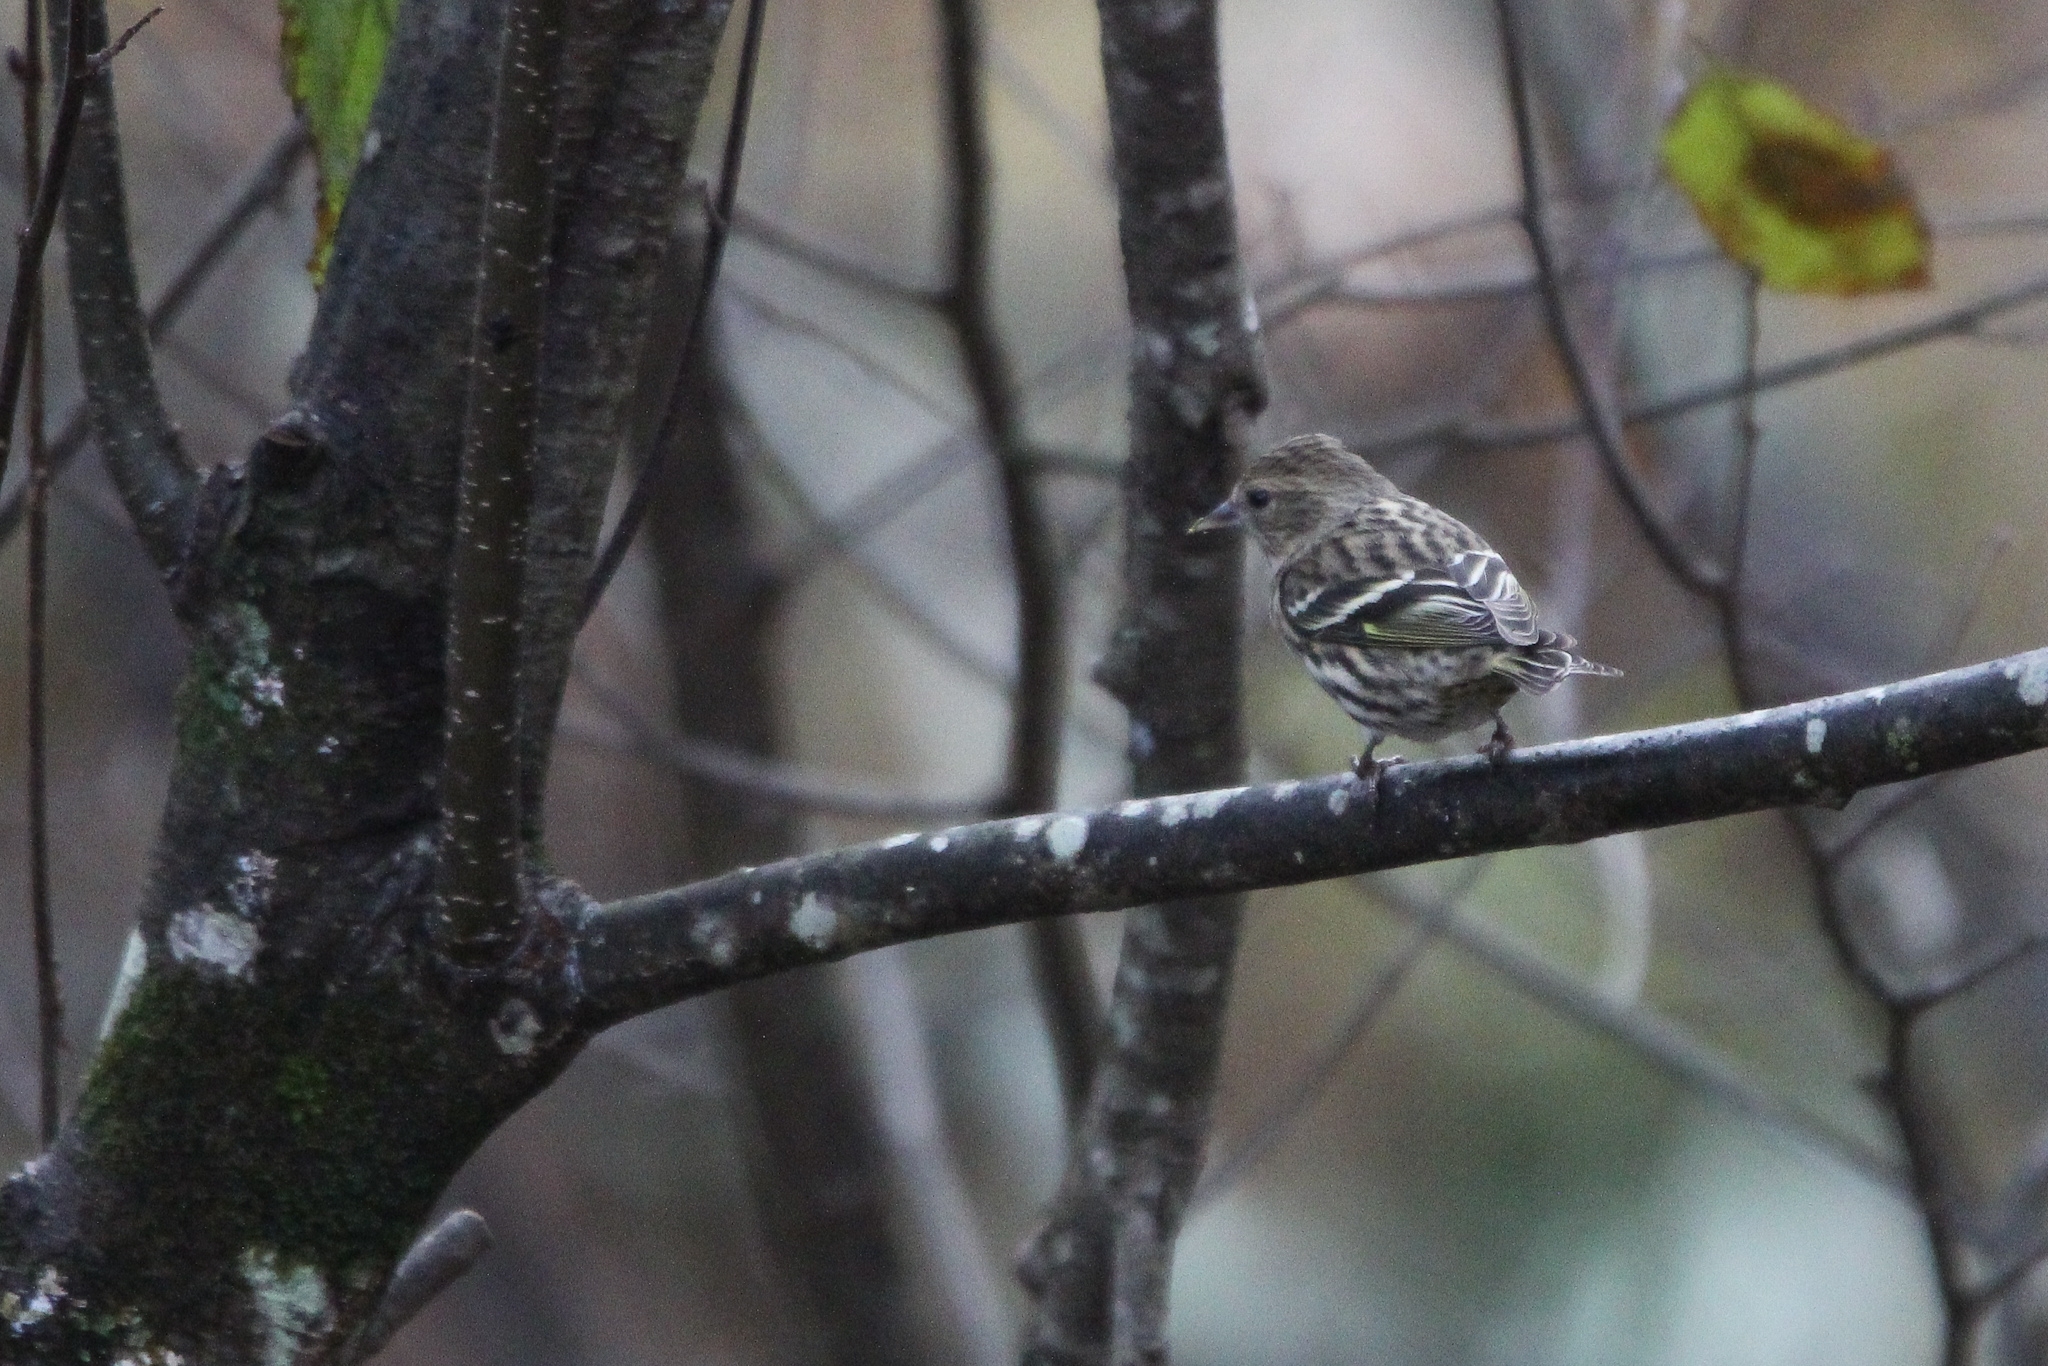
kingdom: Animalia
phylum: Chordata
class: Aves
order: Passeriformes
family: Fringillidae
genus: Spinus
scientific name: Spinus pinus
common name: Pine siskin
